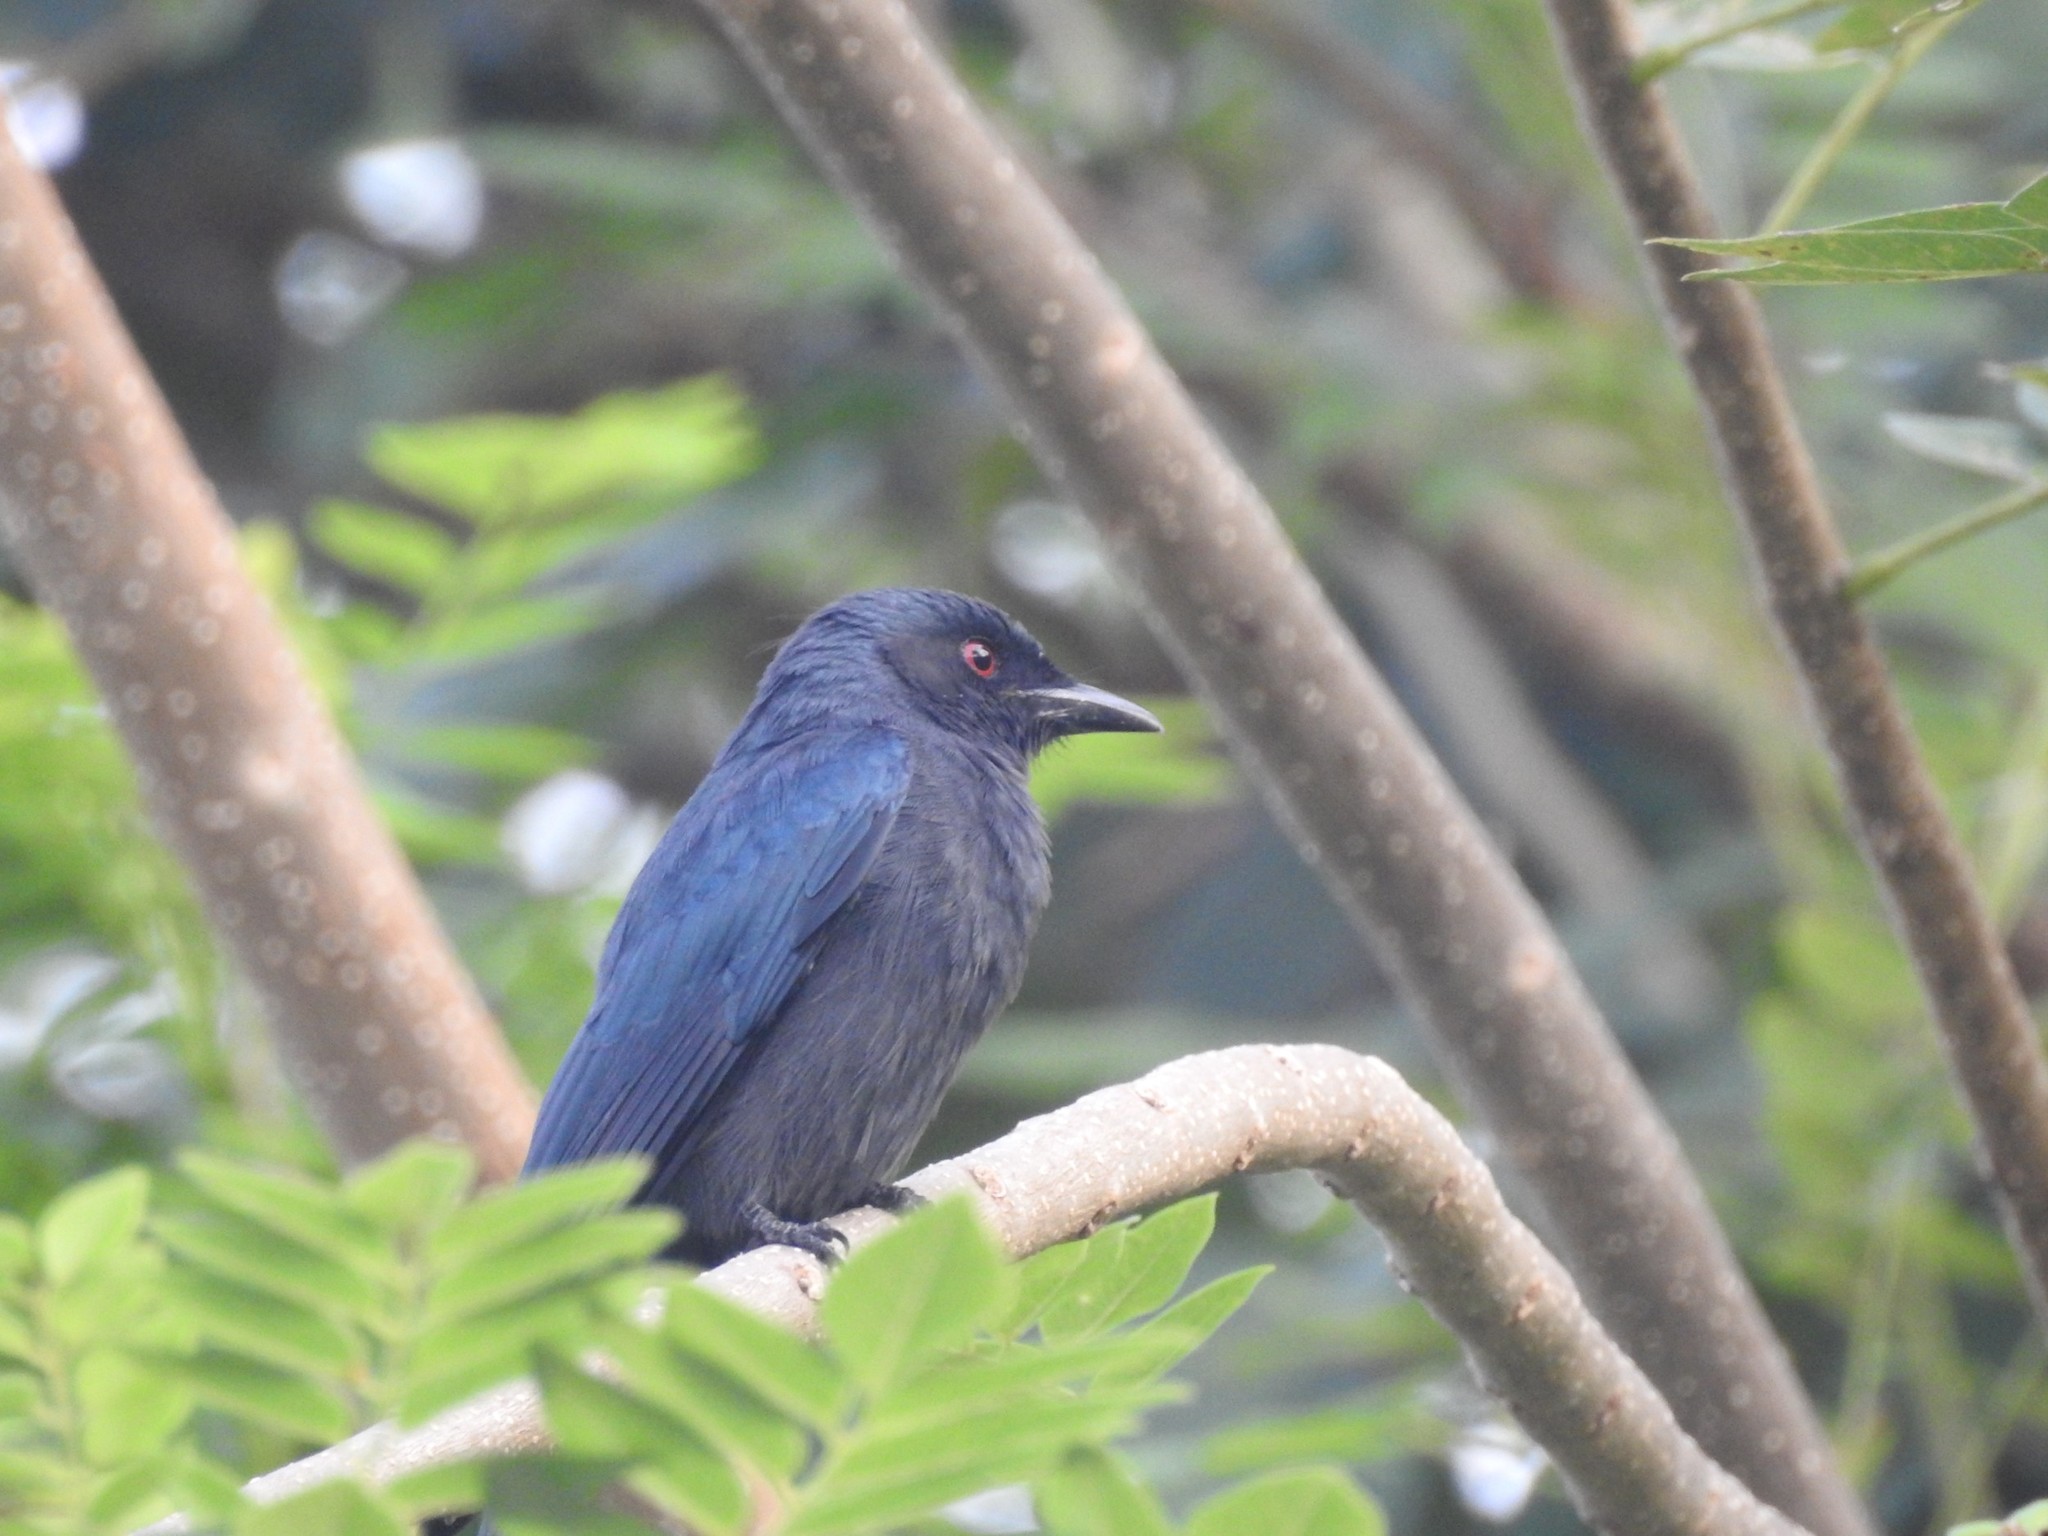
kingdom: Animalia
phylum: Chordata
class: Aves
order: Passeriformes
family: Dicruridae
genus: Dicrurus
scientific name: Dicrurus leucophaeus
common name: Ashy drongo
